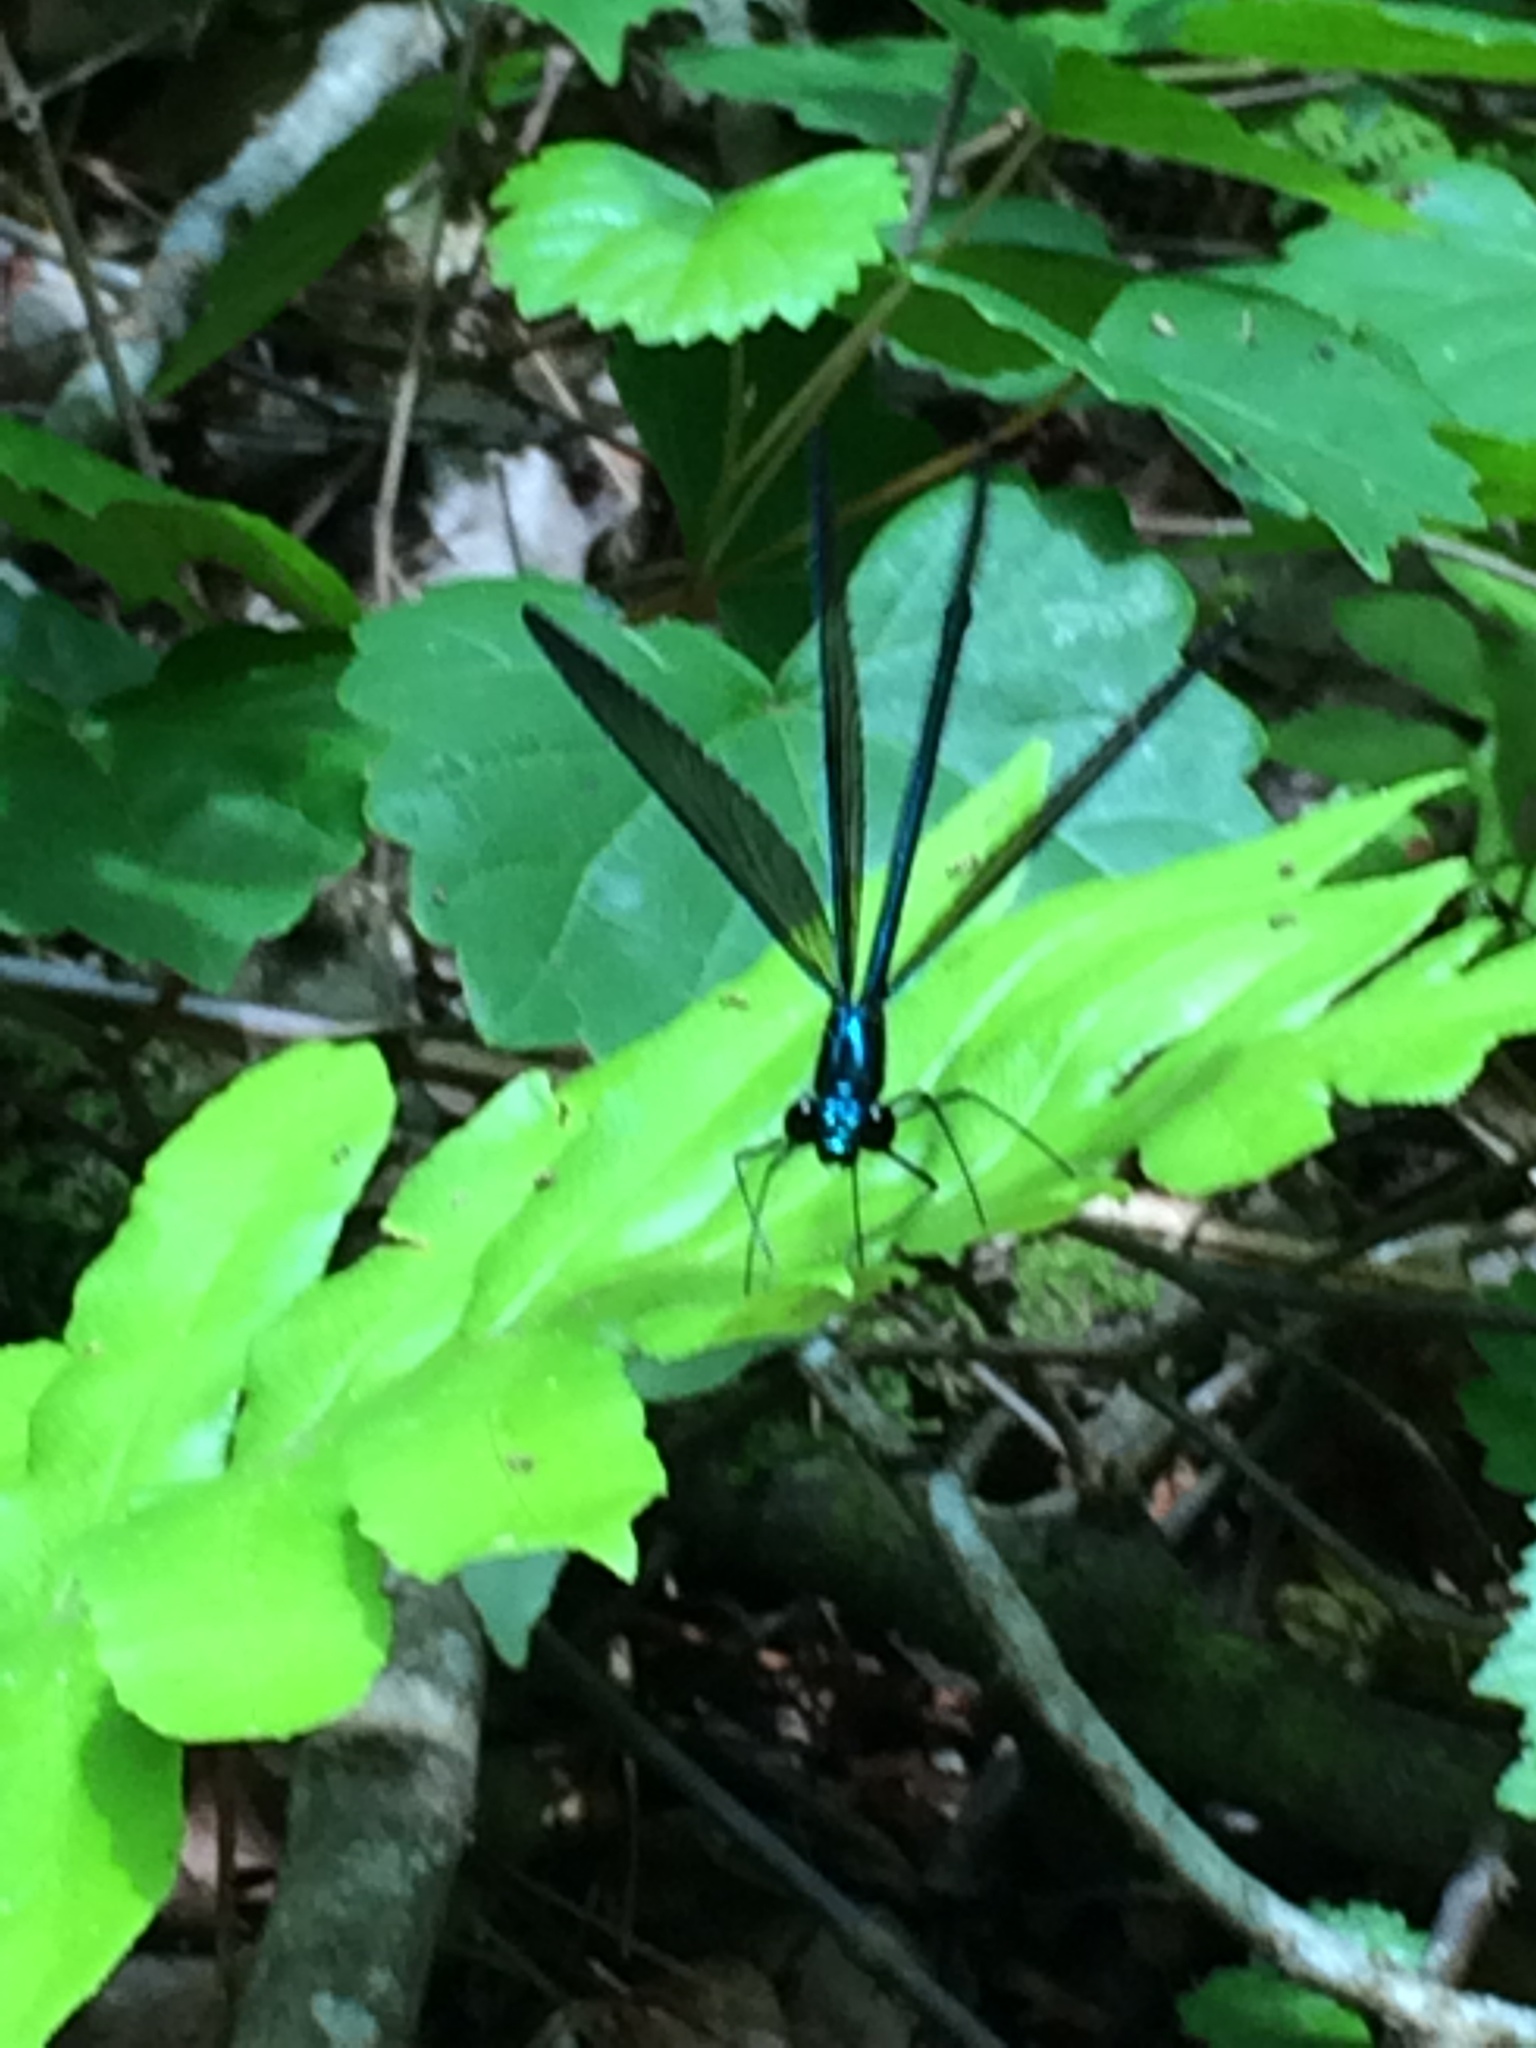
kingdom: Animalia
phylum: Arthropoda
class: Insecta
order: Odonata
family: Calopterygidae
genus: Calopteryx
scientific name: Calopteryx maculata
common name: Ebony jewelwing
